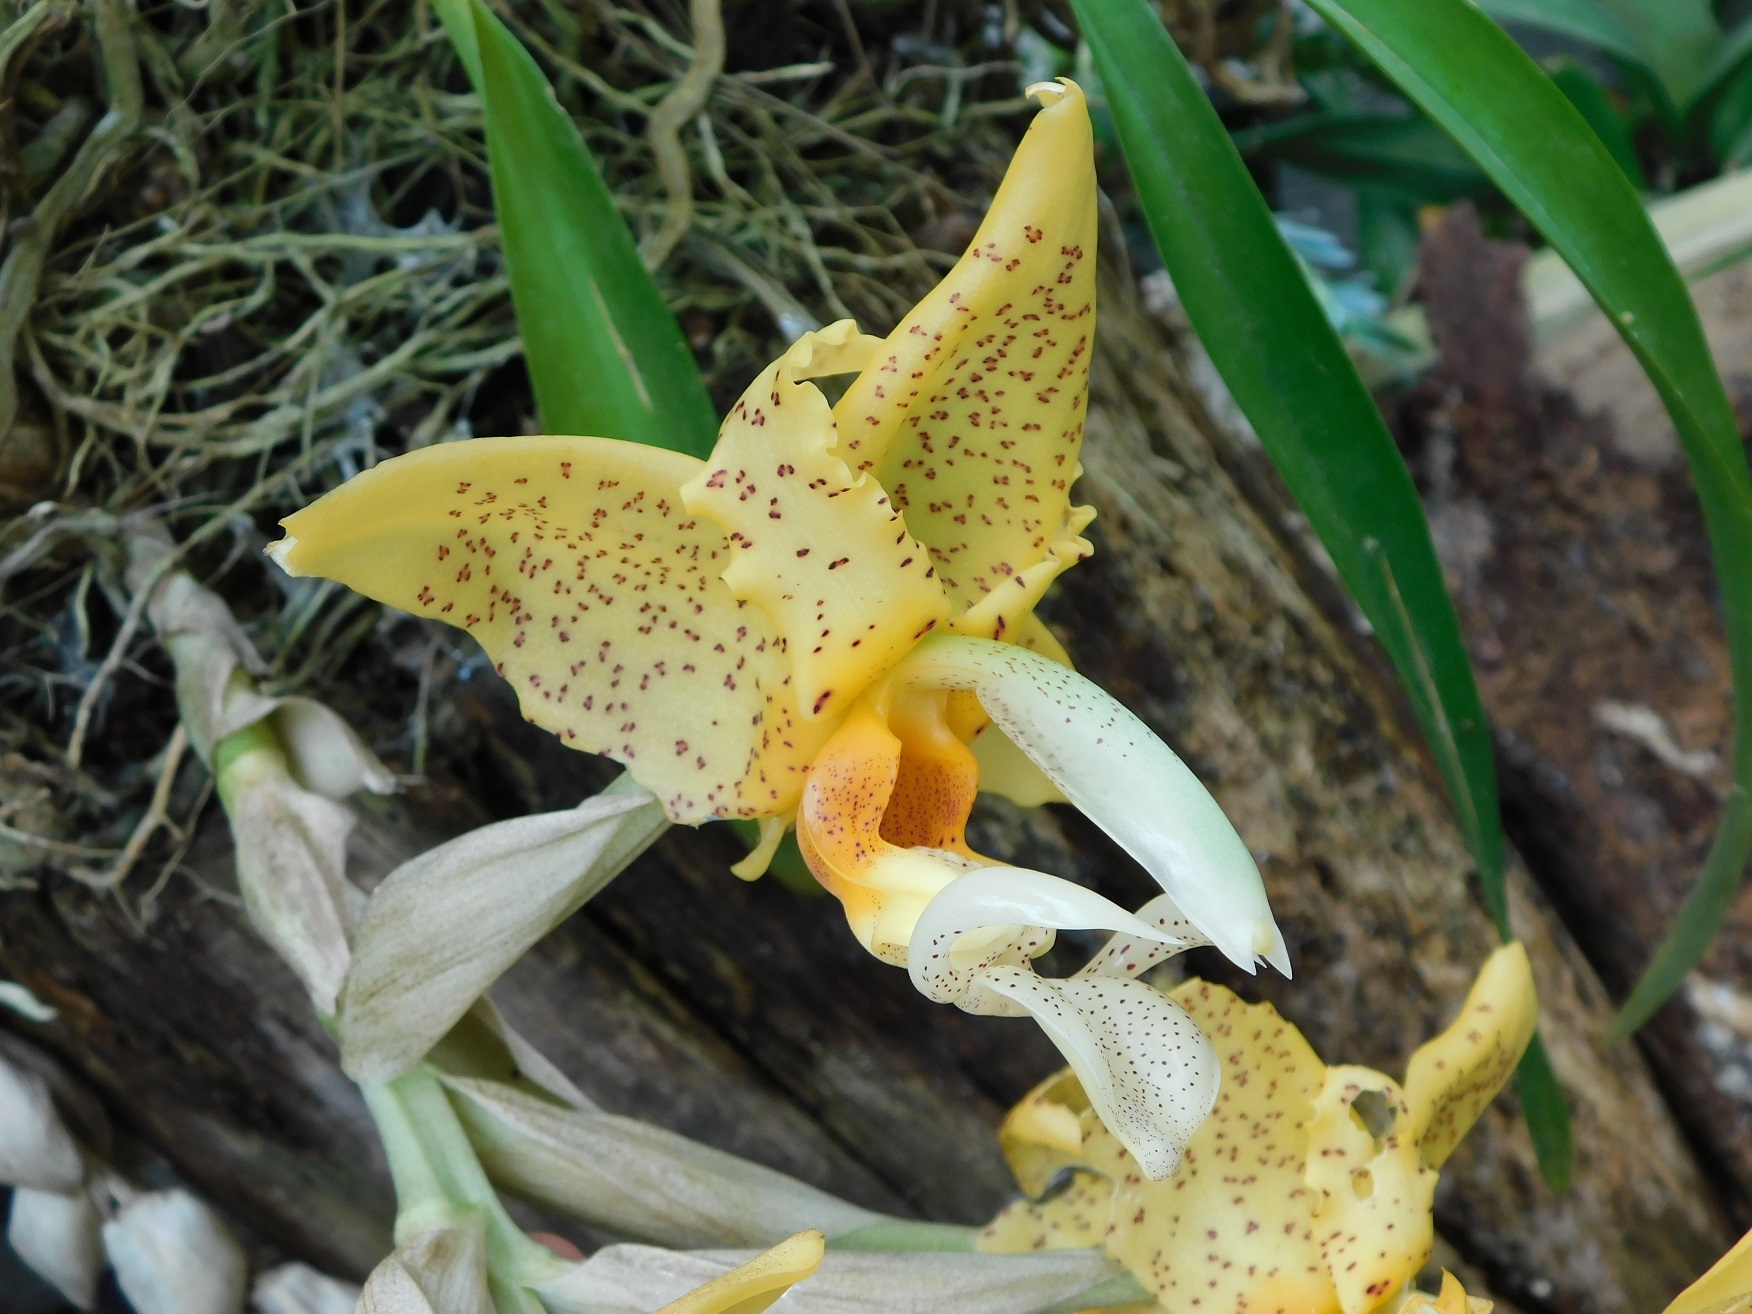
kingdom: Plantae
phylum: Tracheophyta
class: Liliopsida
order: Asparagales
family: Orchidaceae
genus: Stanhopea
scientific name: Stanhopea graveolens
